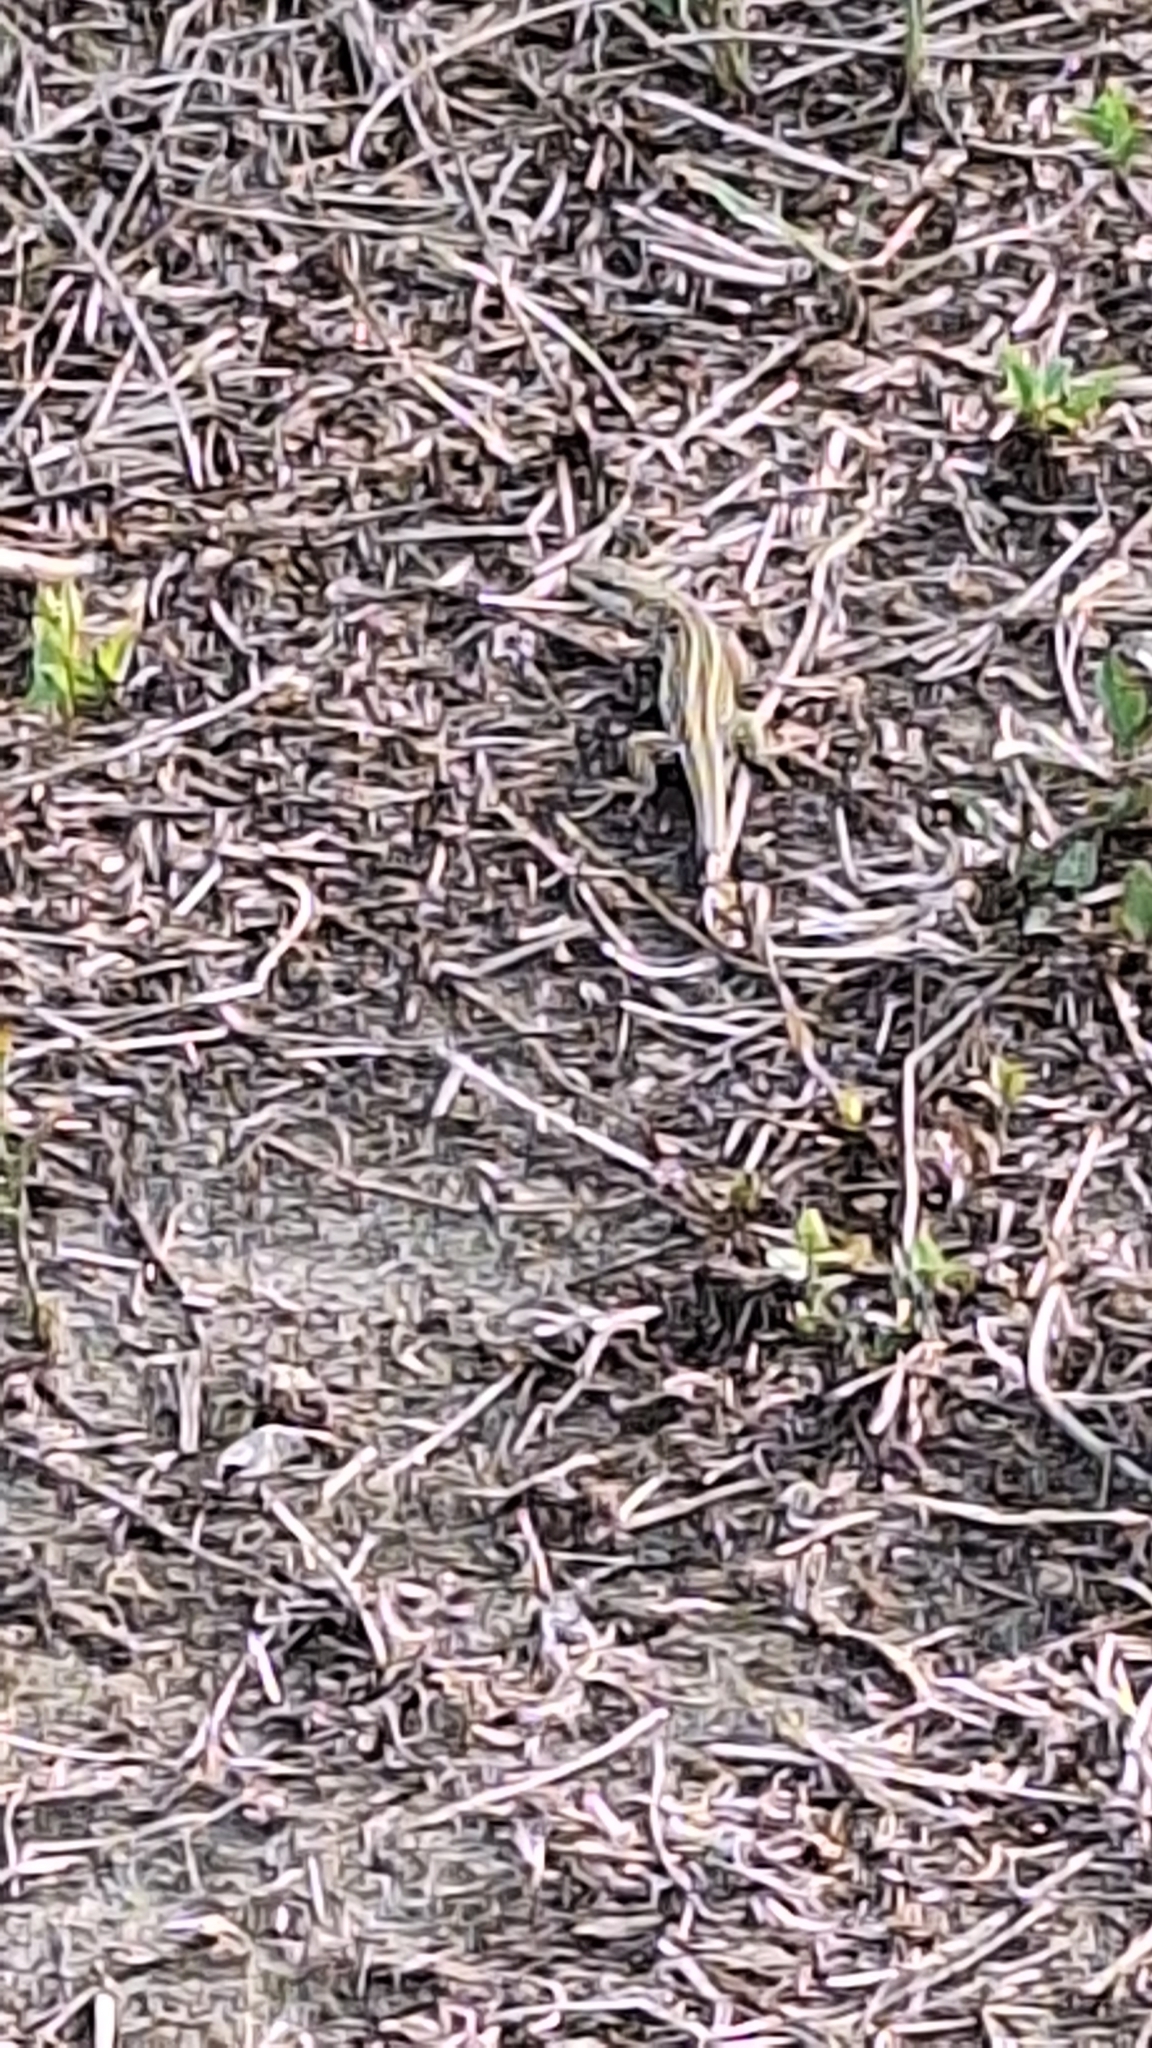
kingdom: Animalia
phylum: Chordata
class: Squamata
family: Lacertidae
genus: Podarcis
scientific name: Podarcis siculus
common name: Italian wall lizard
